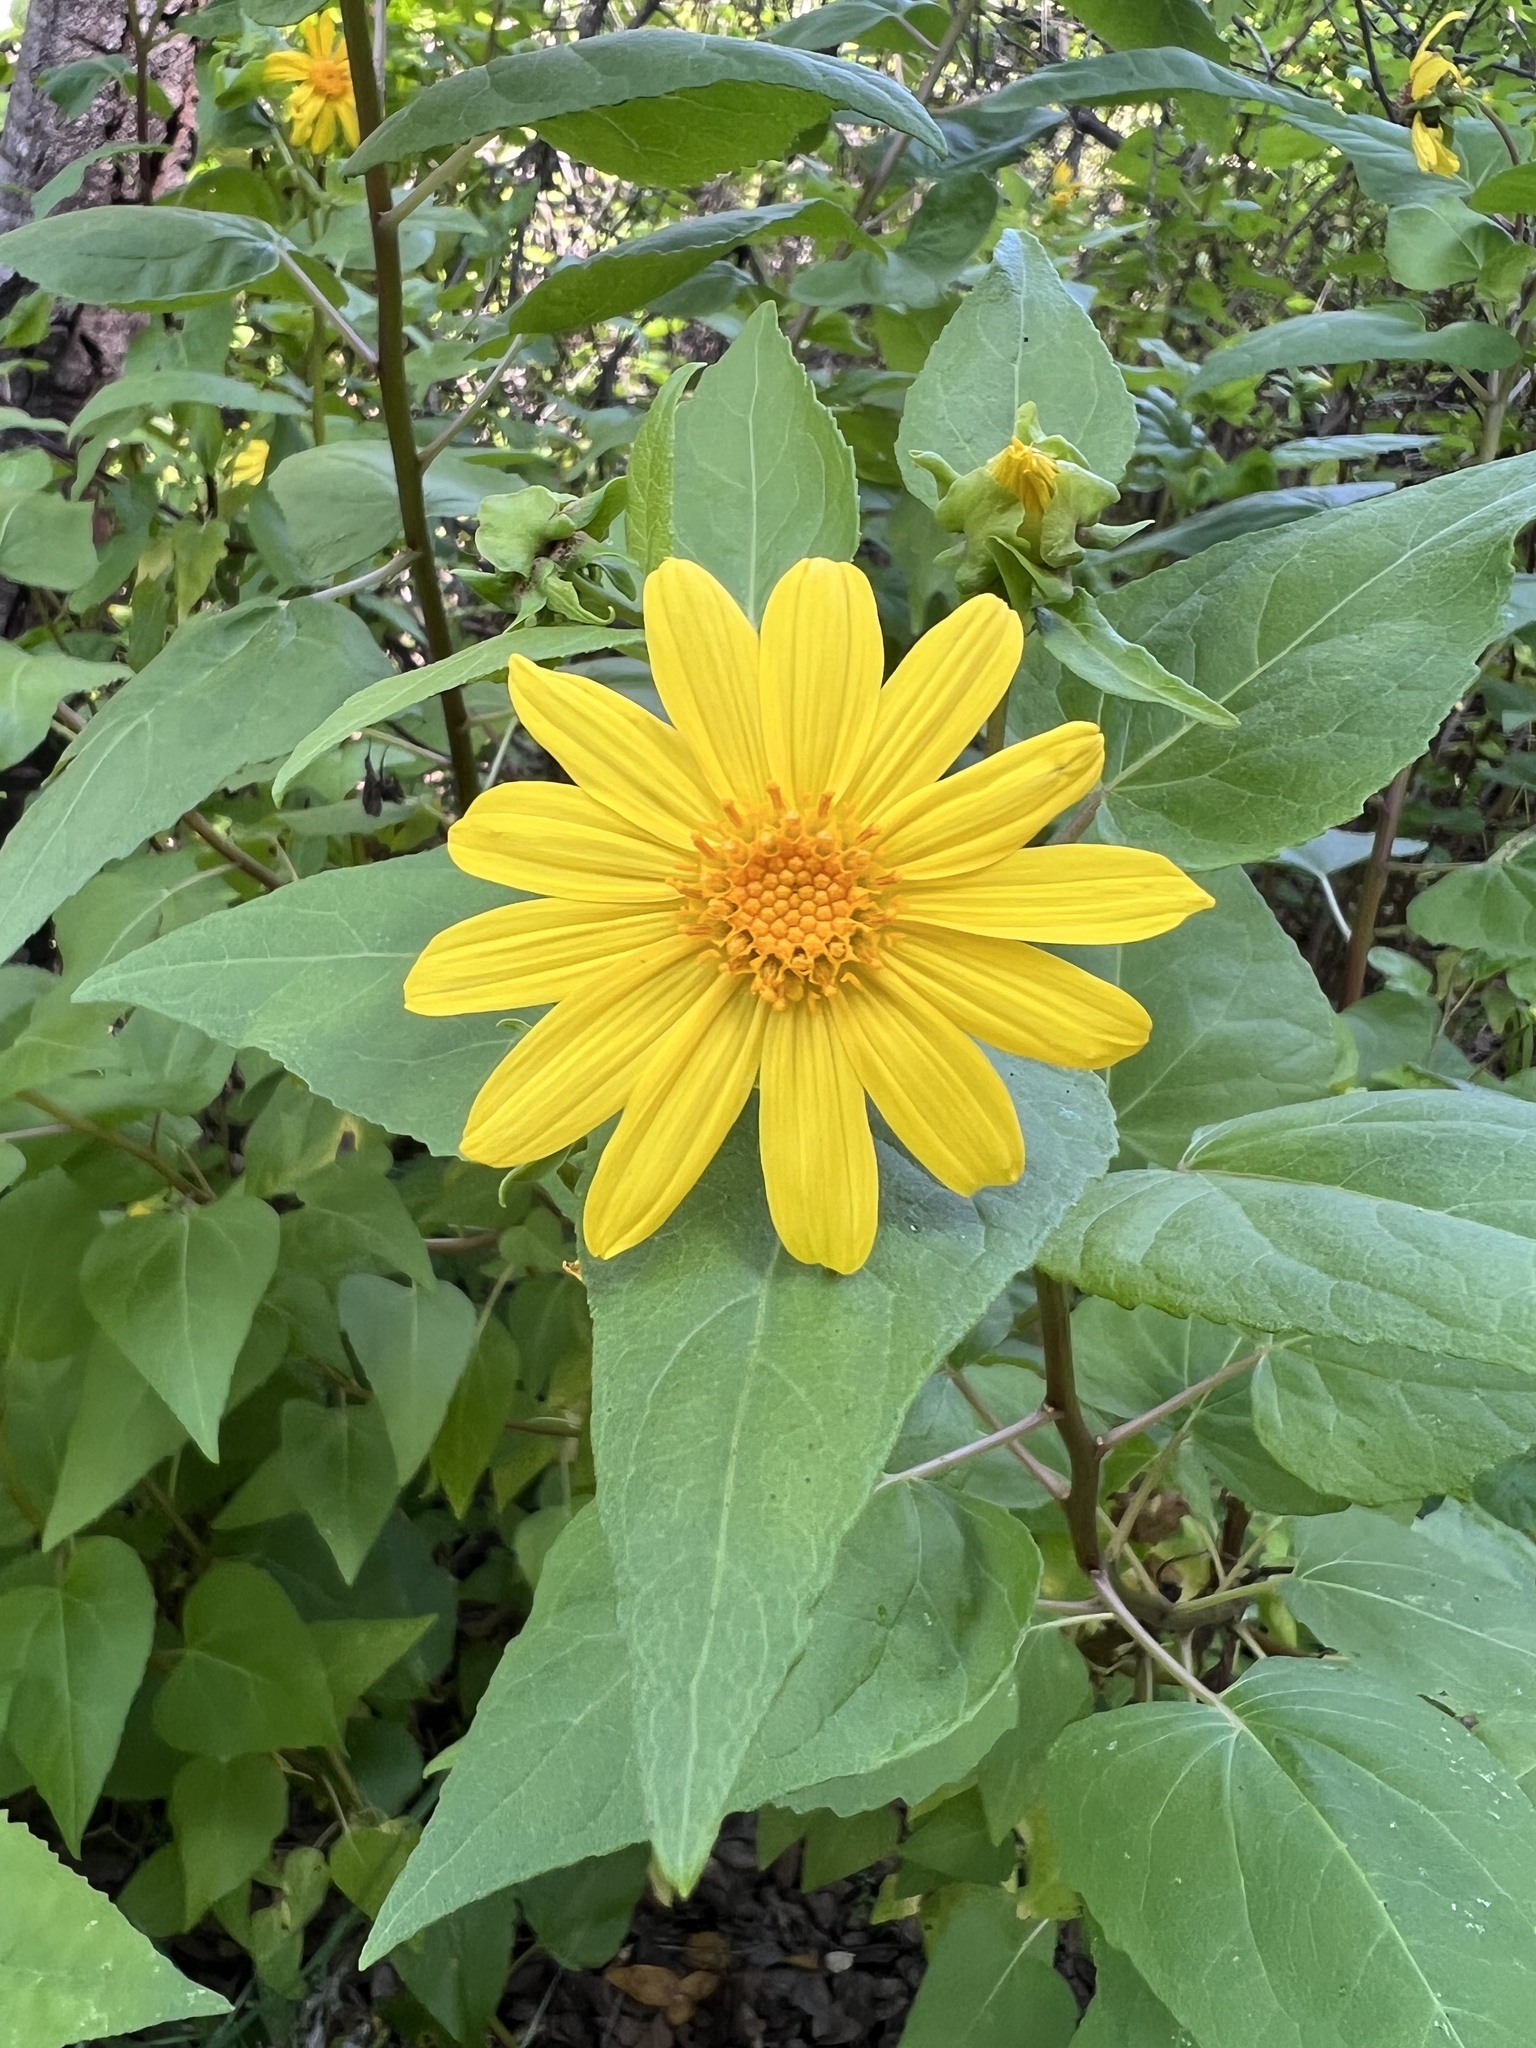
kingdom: Plantae
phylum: Tracheophyta
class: Magnoliopsida
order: Asterales
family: Asteraceae
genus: Venegasia
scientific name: Venegasia carpesioides
